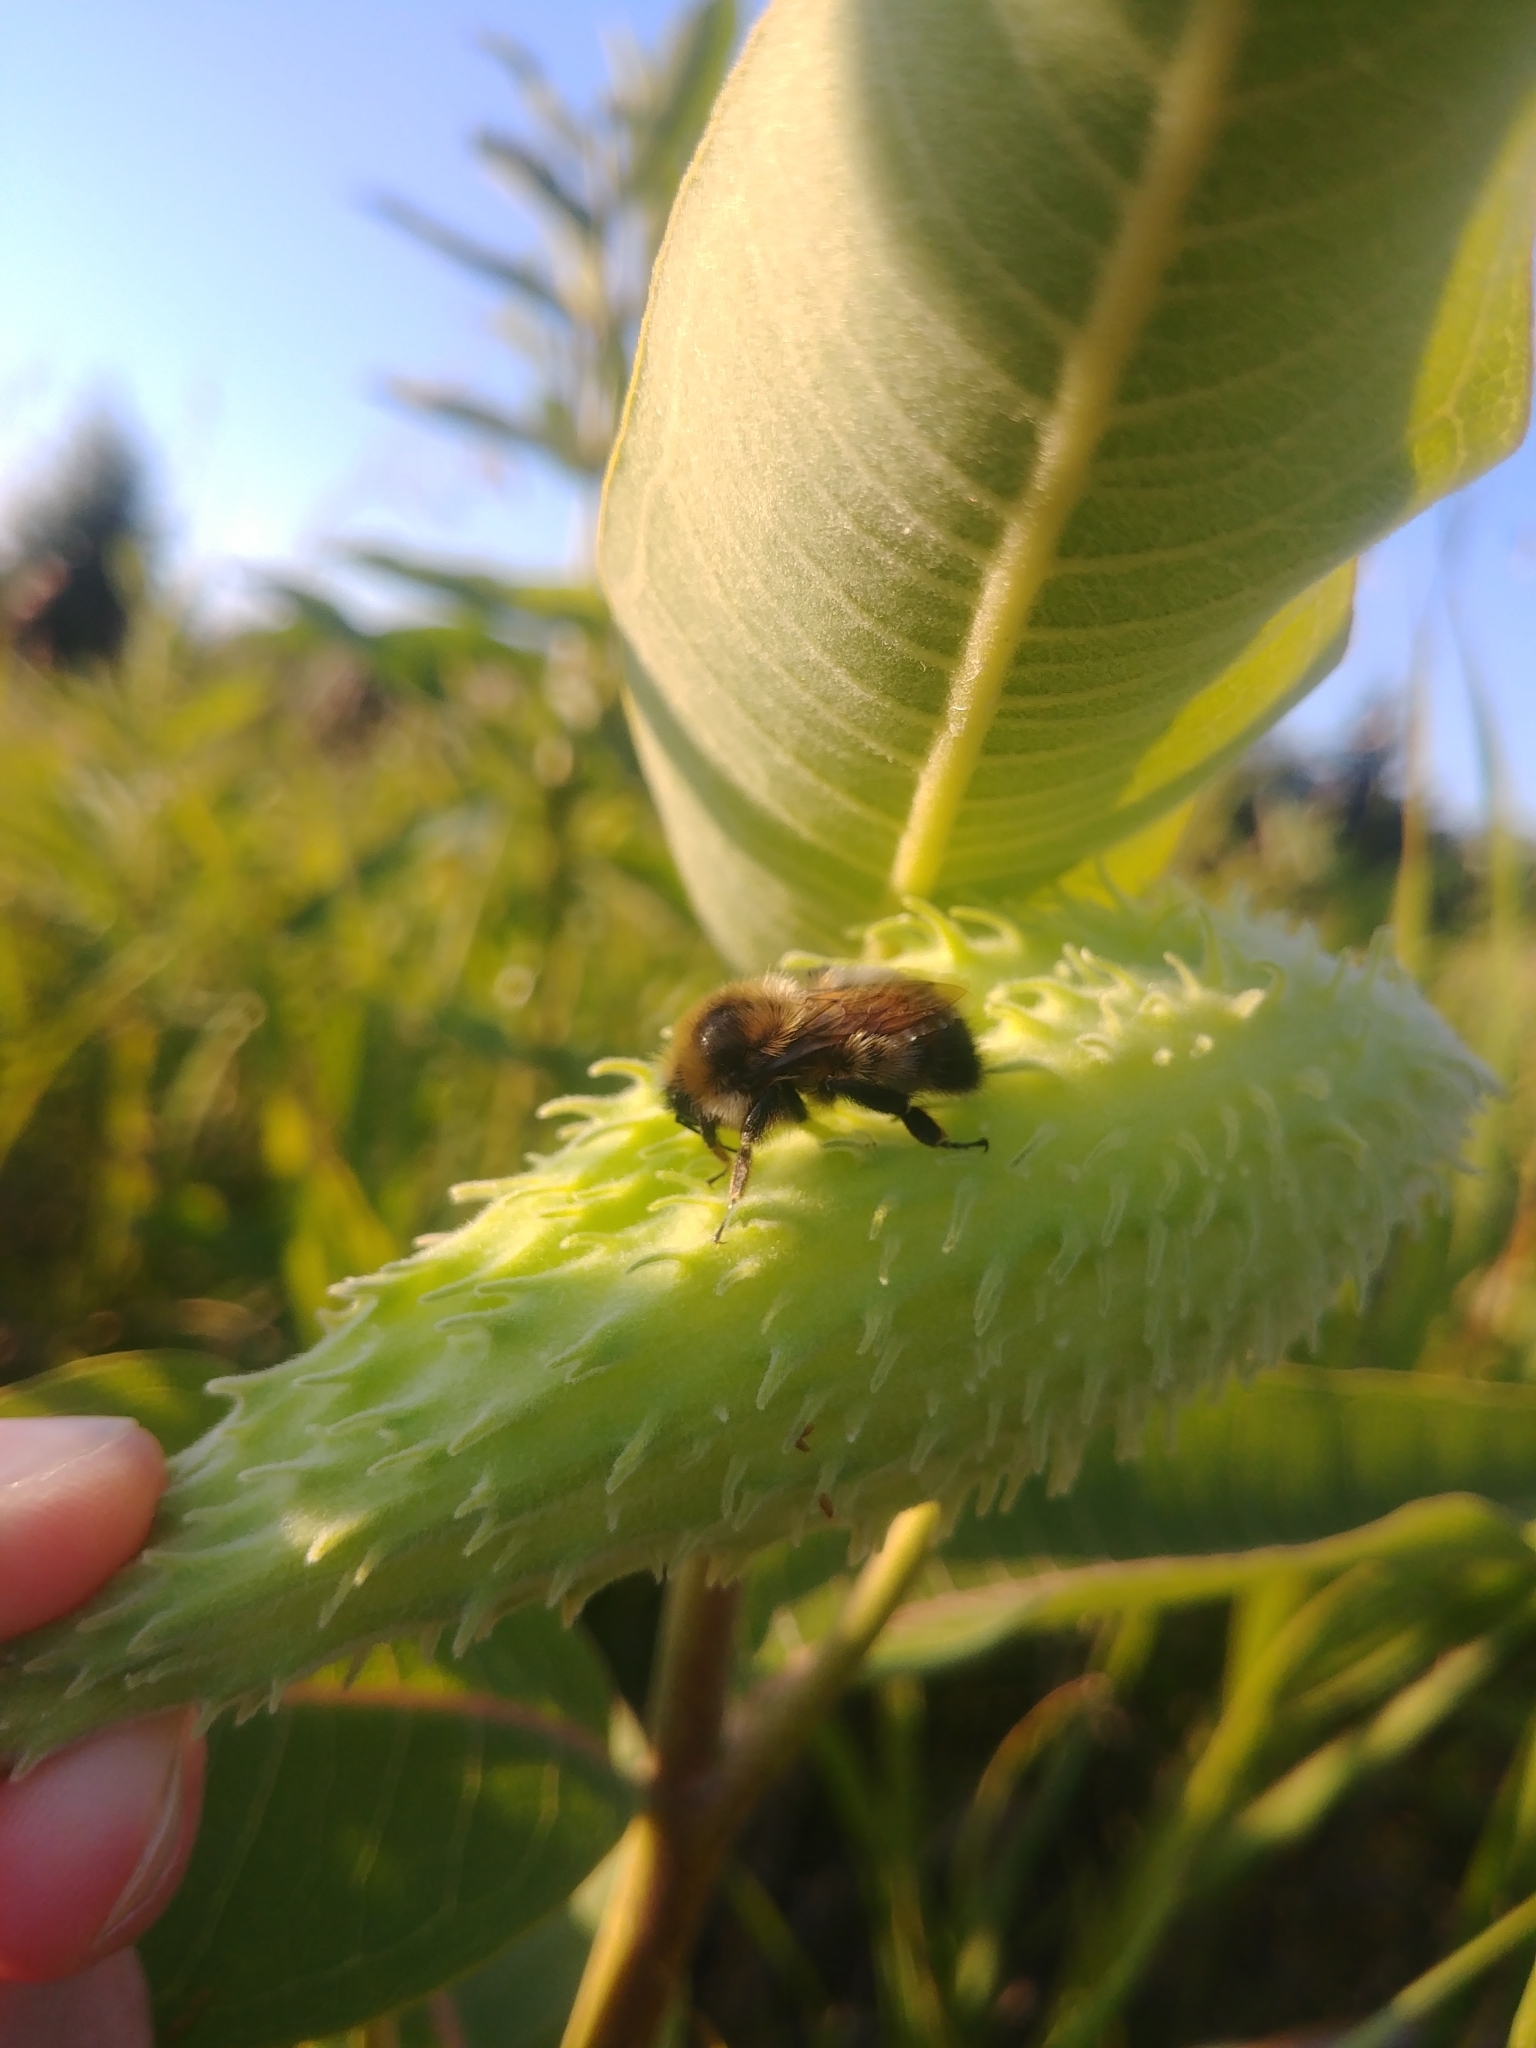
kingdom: Animalia
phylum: Arthropoda
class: Insecta
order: Hymenoptera
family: Apidae
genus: Bombus
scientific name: Bombus rufocinctus
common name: Red-belted bumble bee
